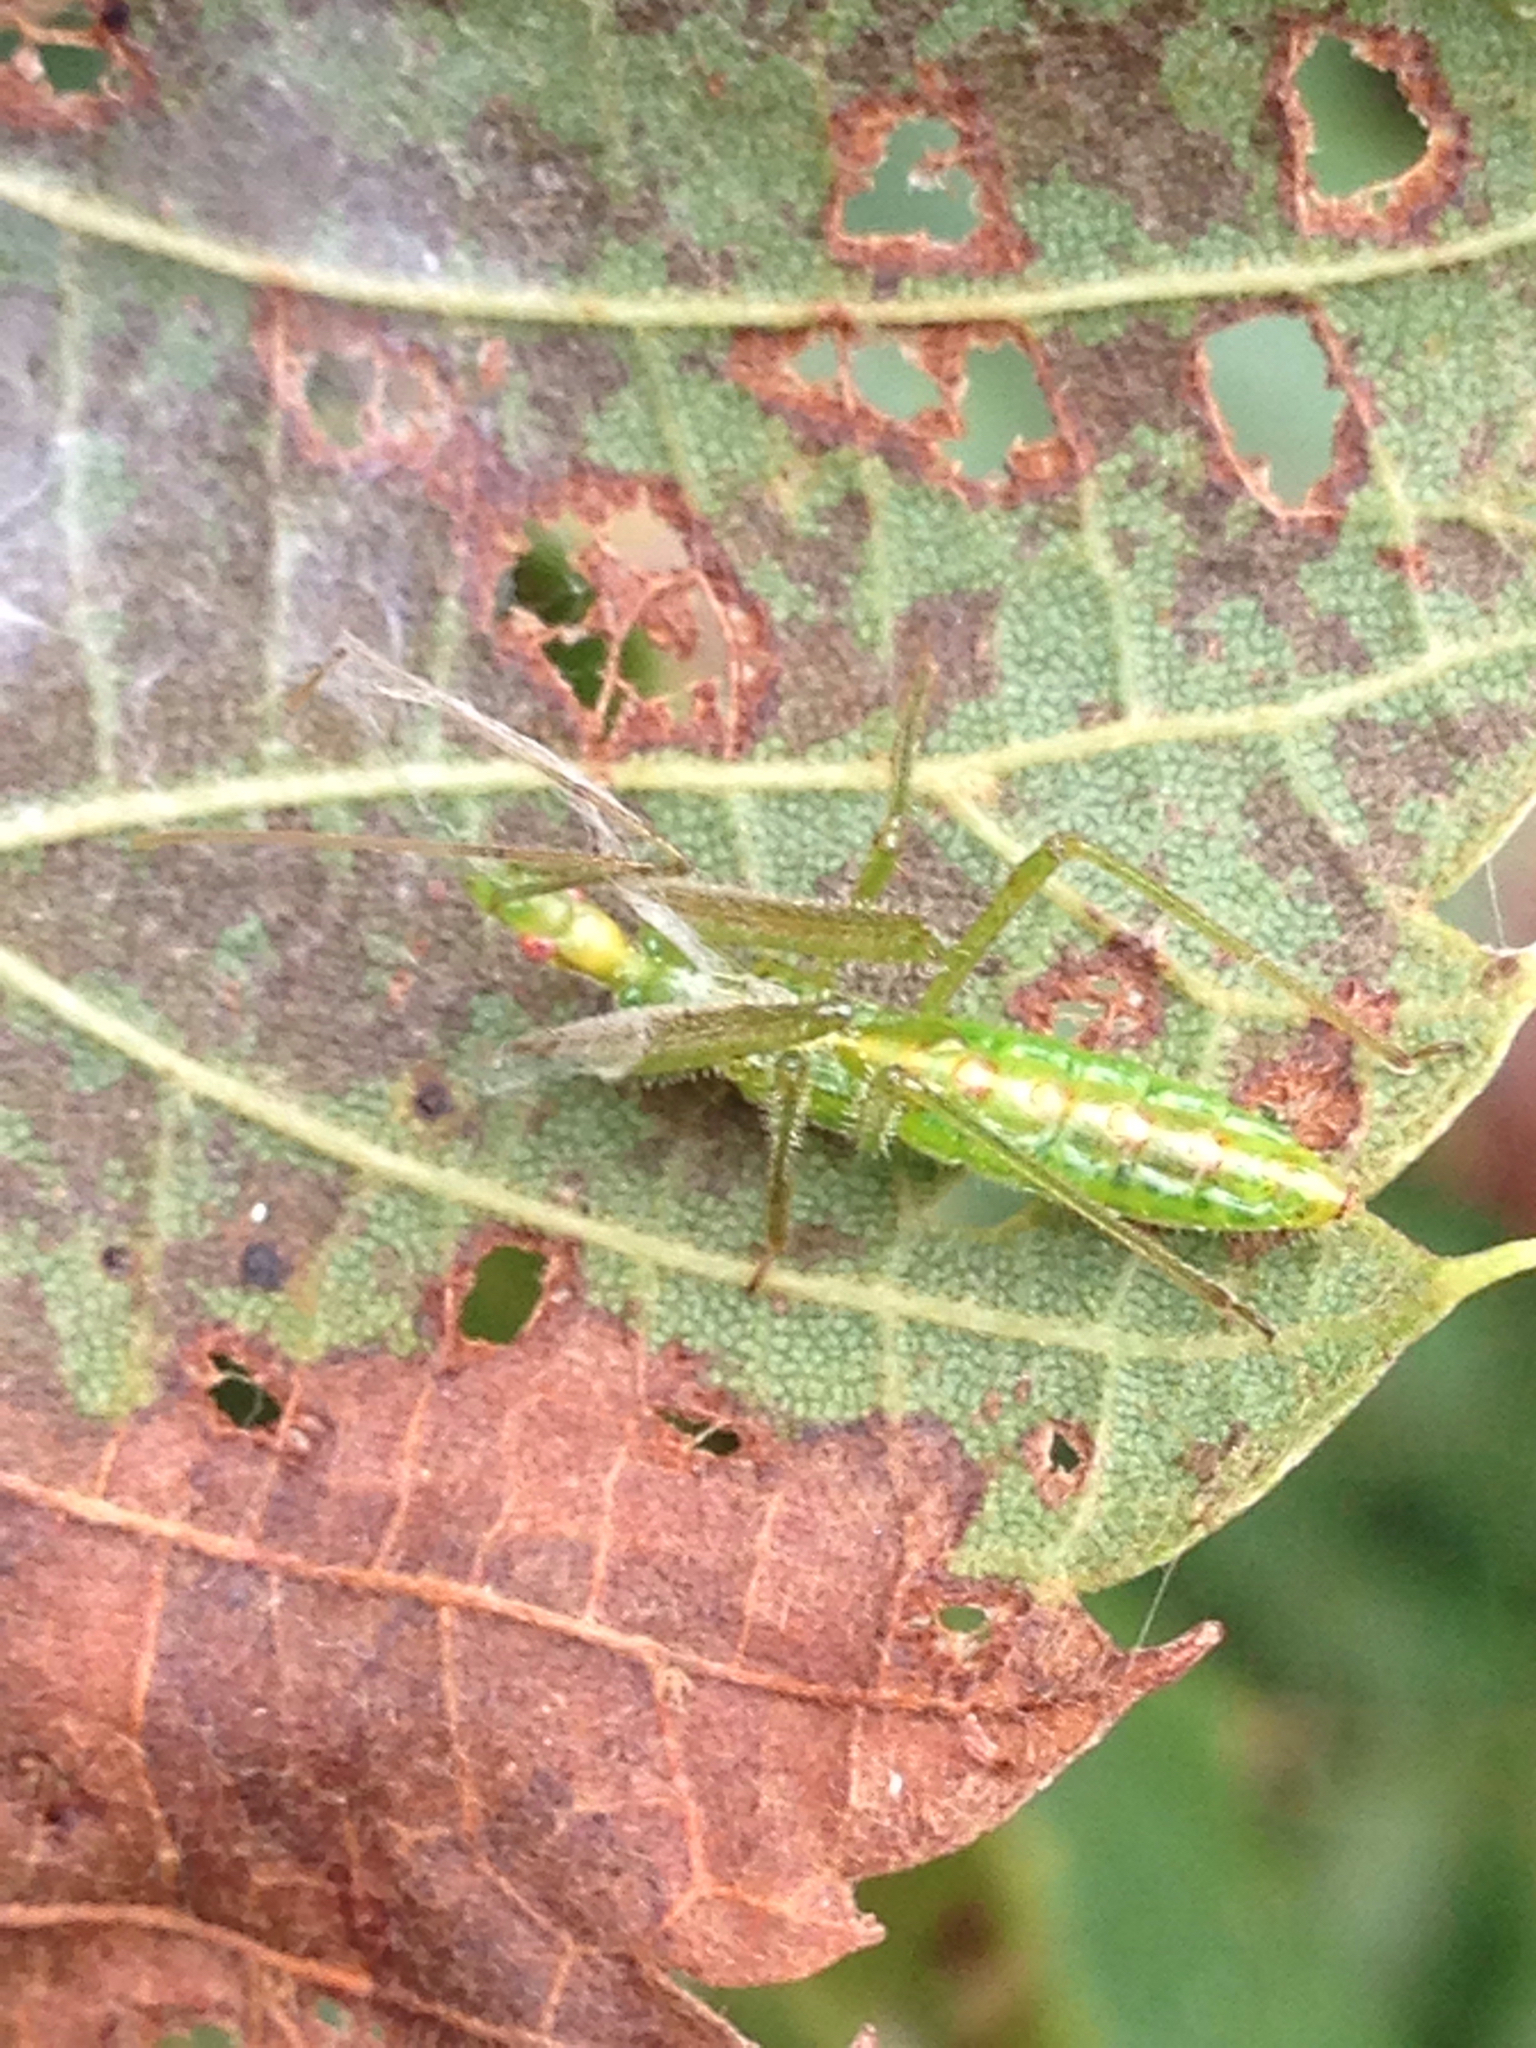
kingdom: Animalia
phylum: Arthropoda
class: Insecta
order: Hemiptera
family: Reduviidae
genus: Zelus
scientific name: Zelus luridus
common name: Pale green assassin bug
